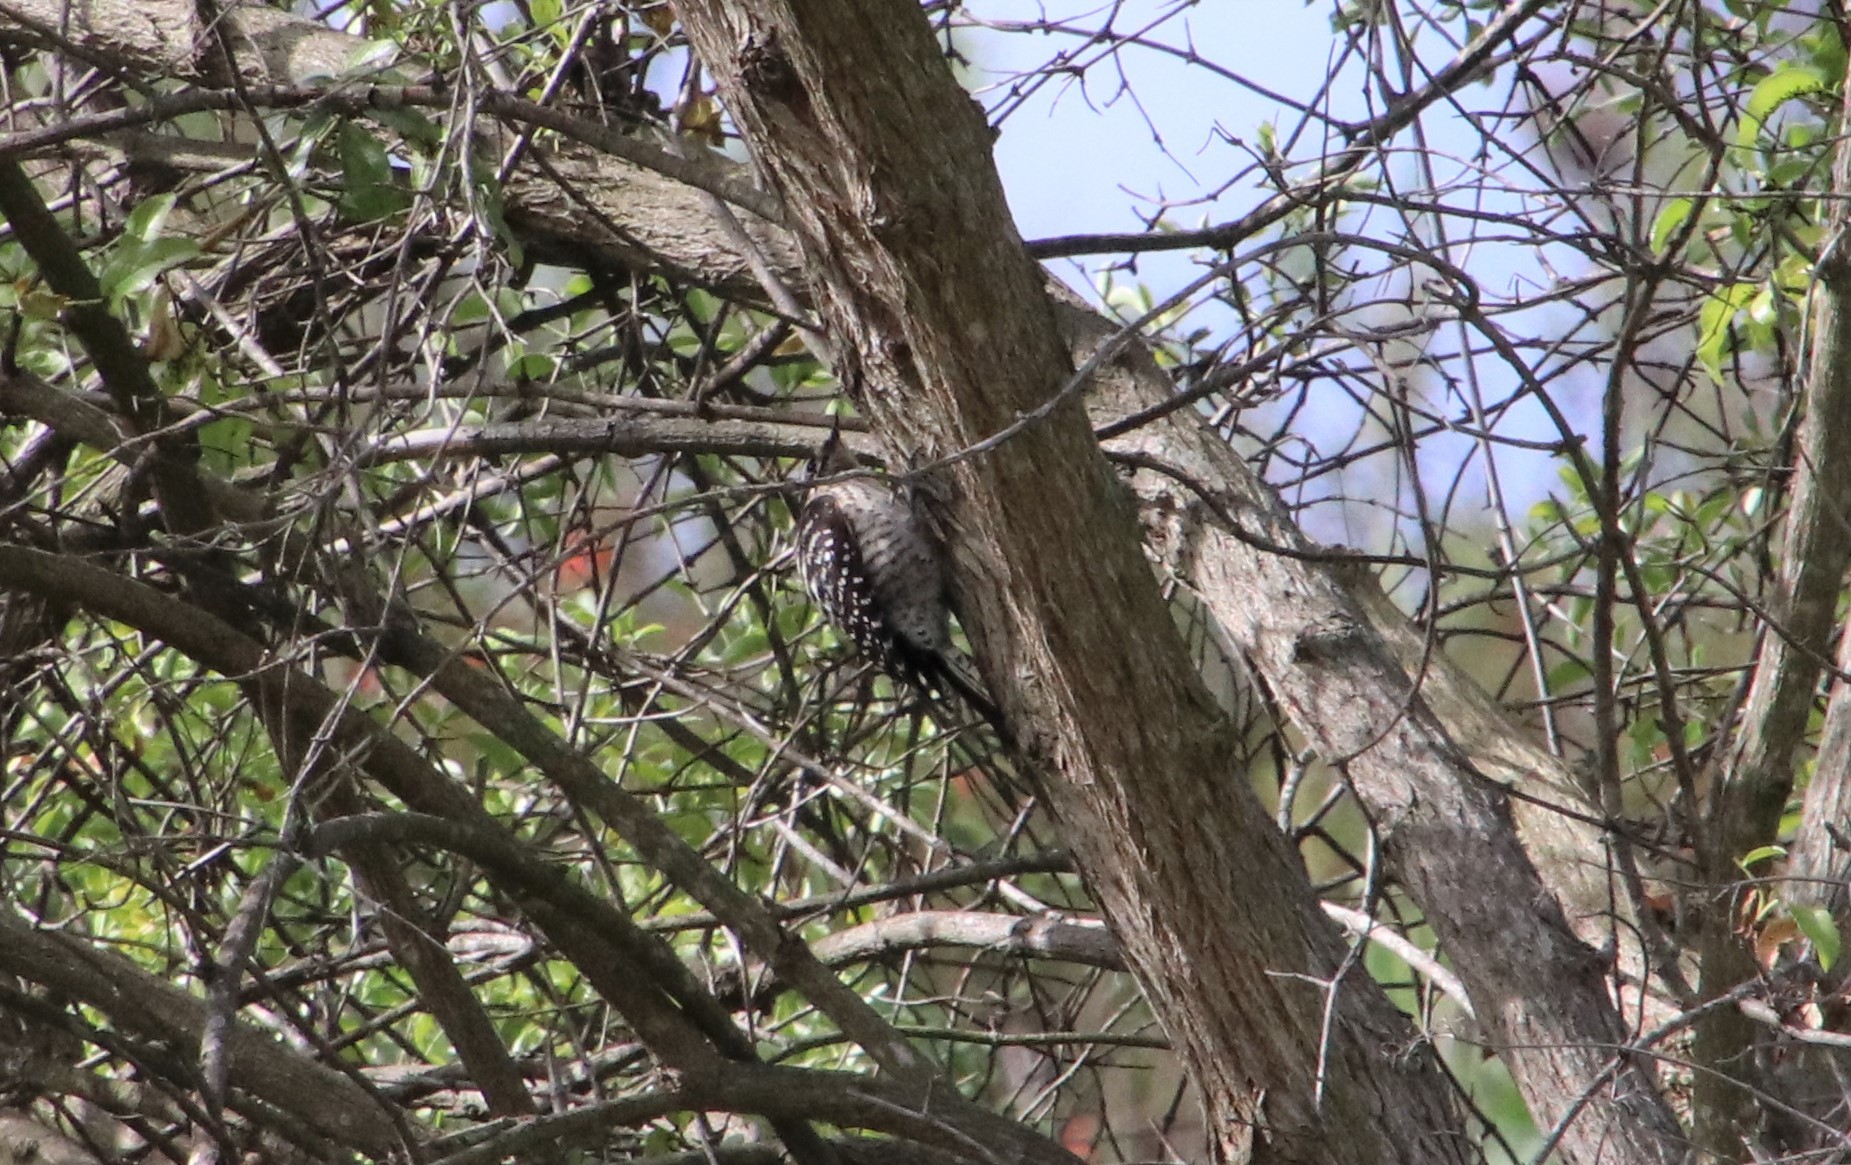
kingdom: Animalia
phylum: Chordata
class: Aves
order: Piciformes
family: Picidae
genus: Dryobates
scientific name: Dryobates nuttallii
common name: Nuttall's woodpecker
